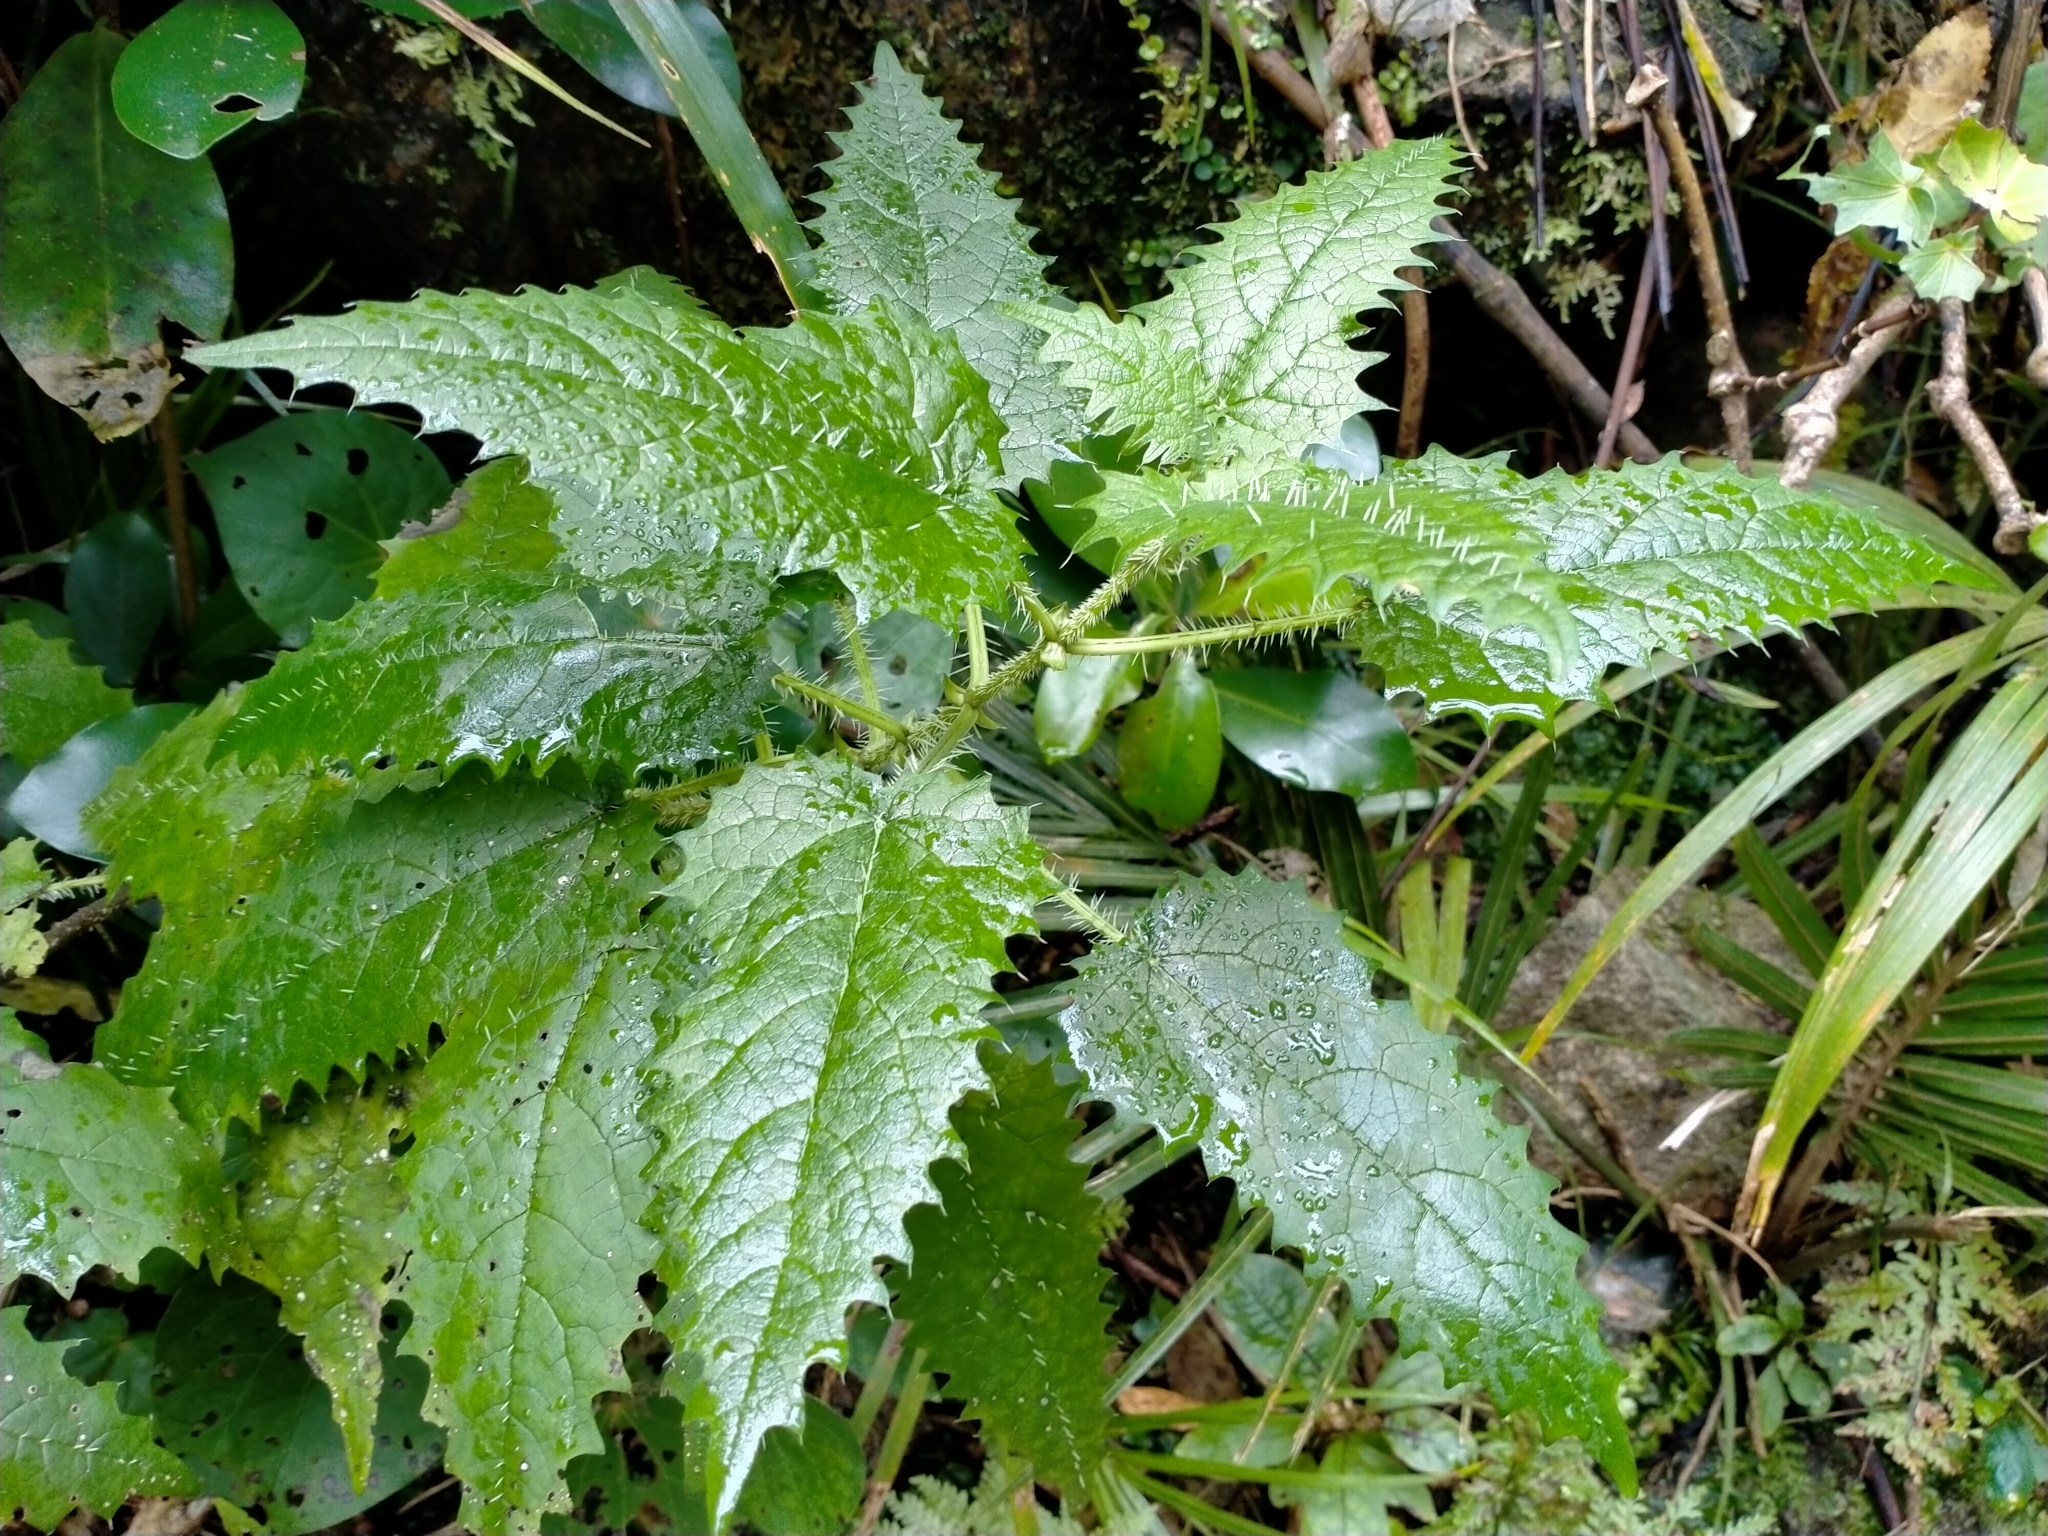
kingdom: Plantae
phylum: Tracheophyta
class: Magnoliopsida
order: Rosales
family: Urticaceae
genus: Urtica
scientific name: Urtica ferox
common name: Tree nettle
